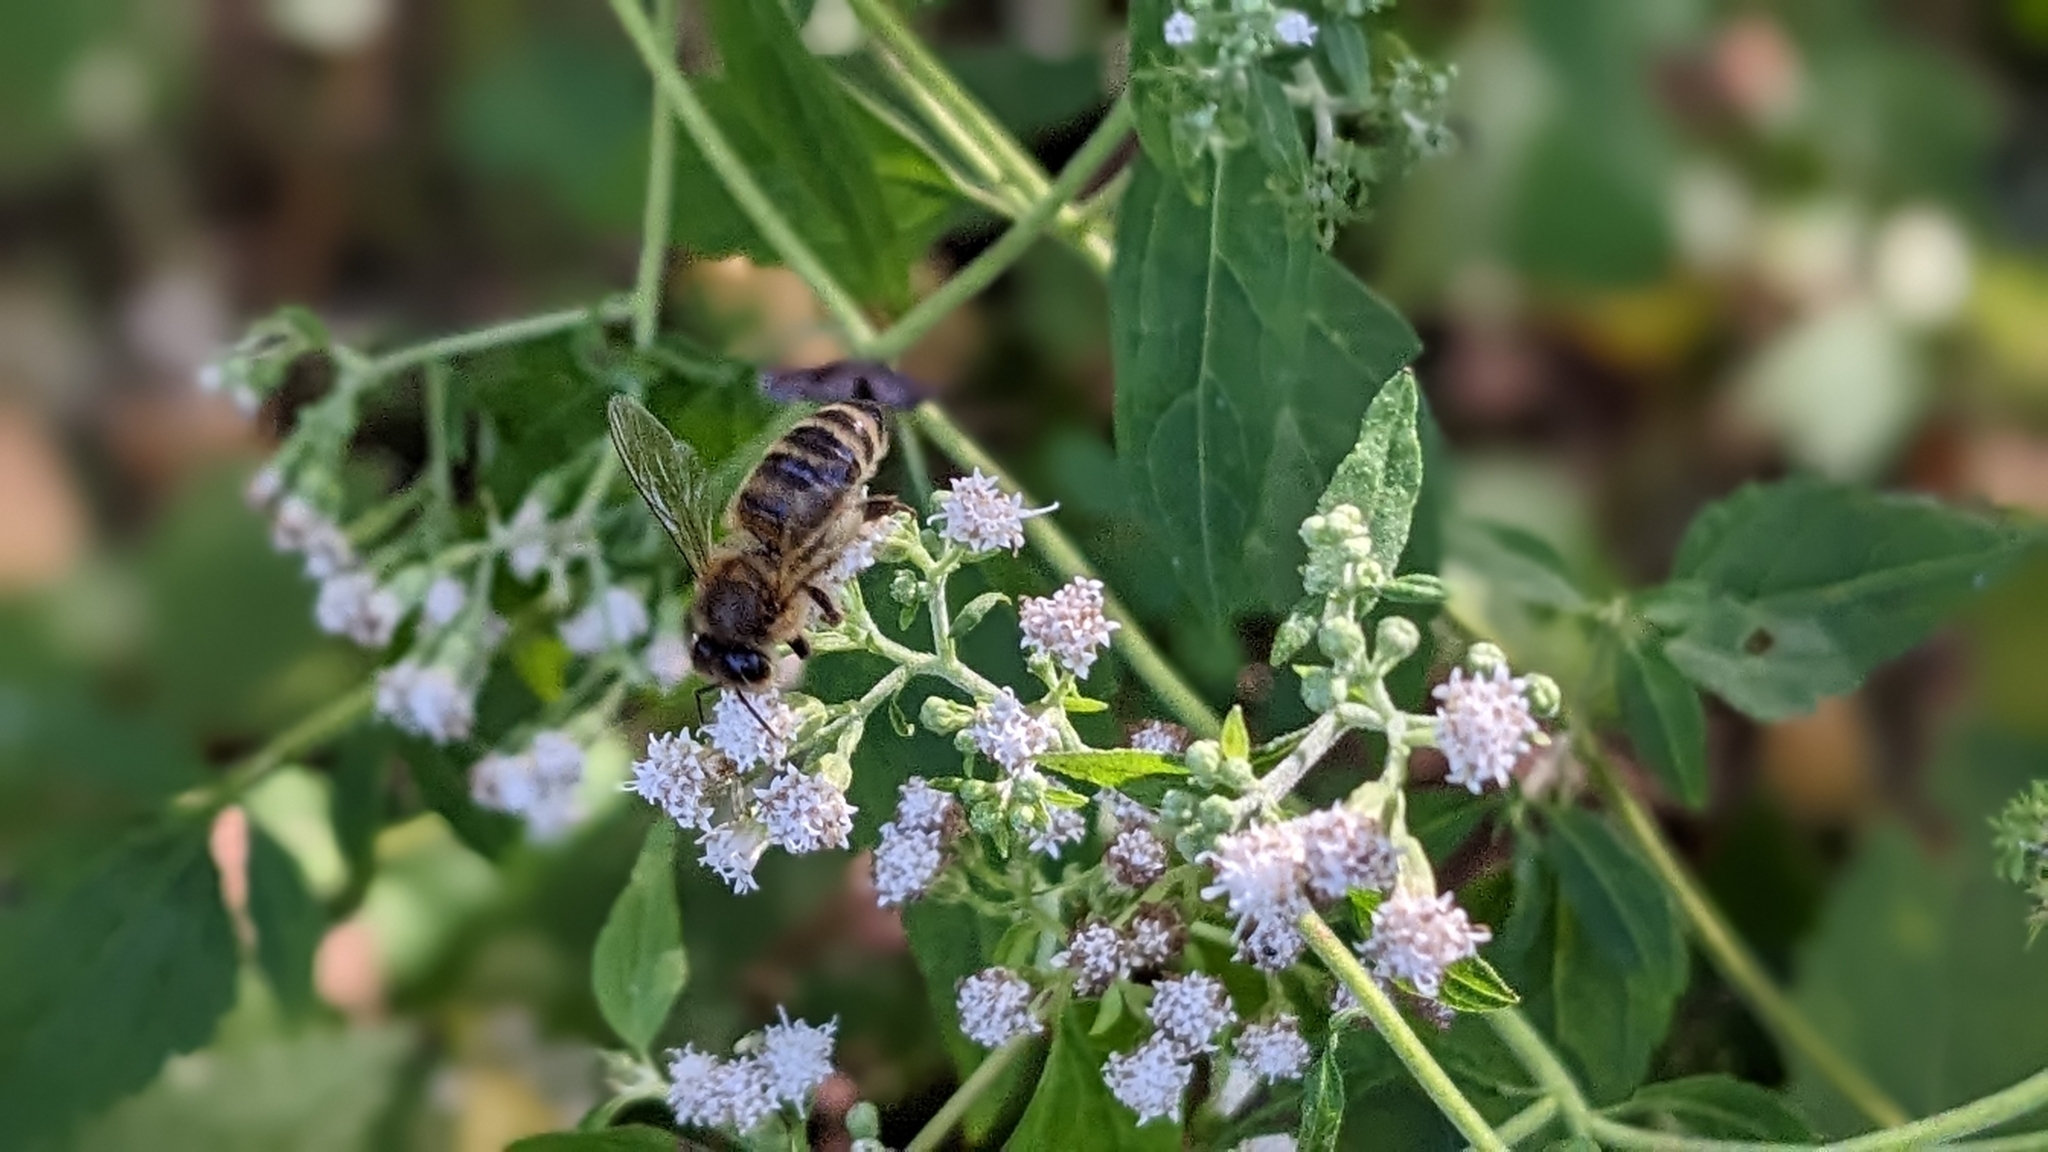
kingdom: Plantae
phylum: Tracheophyta
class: Magnoliopsida
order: Asterales
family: Asteraceae
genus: Ageratina
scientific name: Ageratina altissima
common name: White snakeroot
